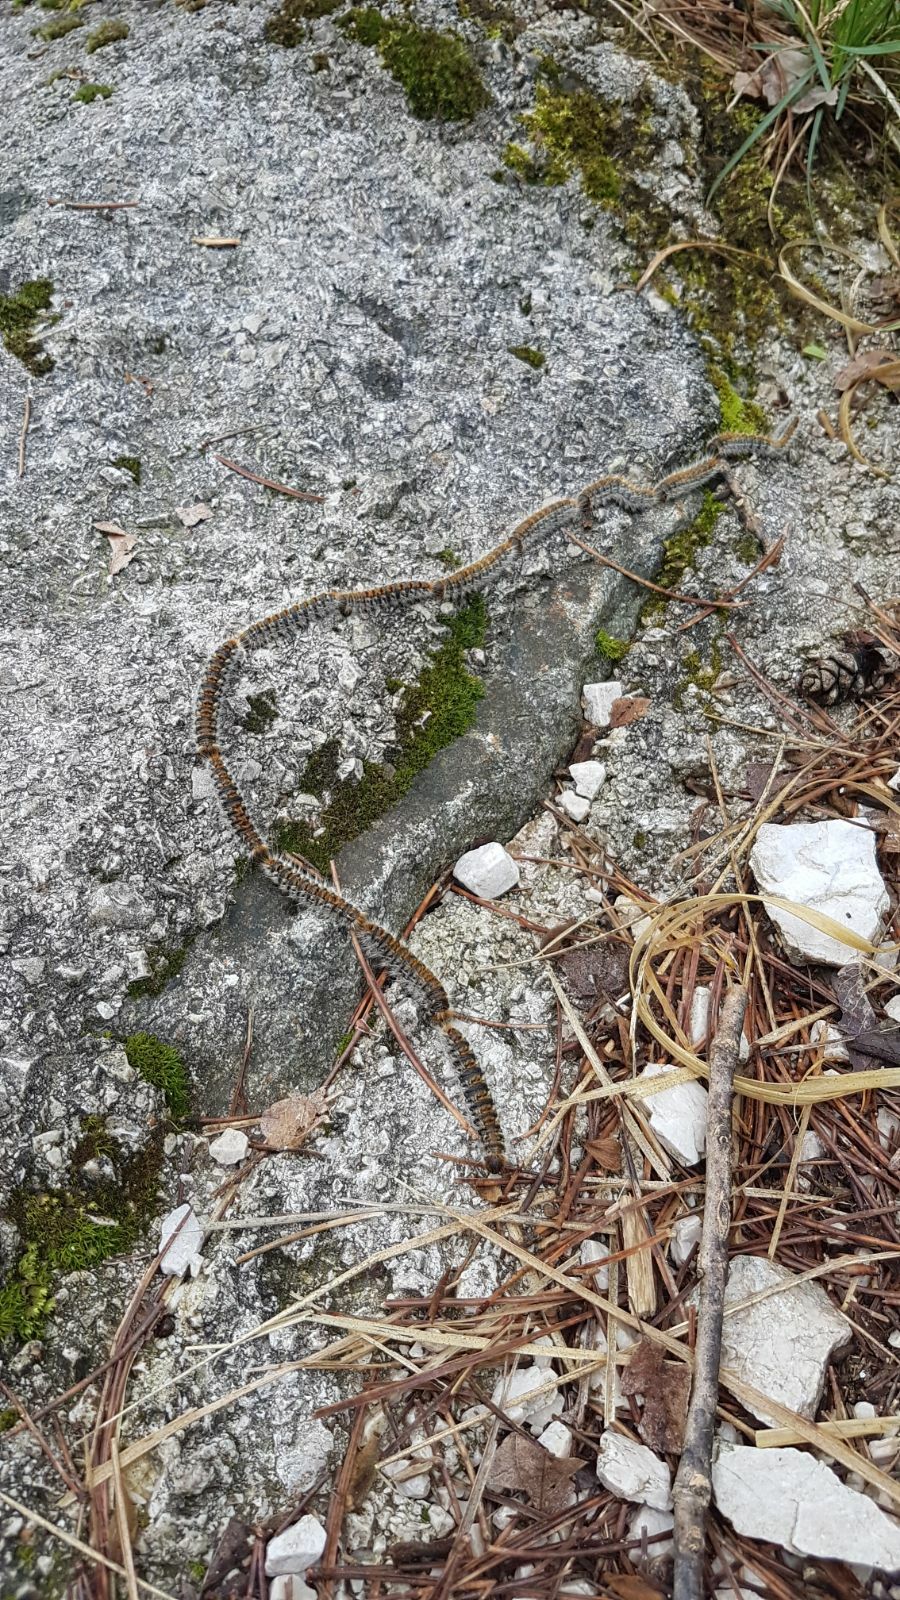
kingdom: Animalia
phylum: Arthropoda
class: Insecta
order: Lepidoptera
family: Notodontidae
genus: Thaumetopoea
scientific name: Thaumetopoea pityocampa
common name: Pine processionary
